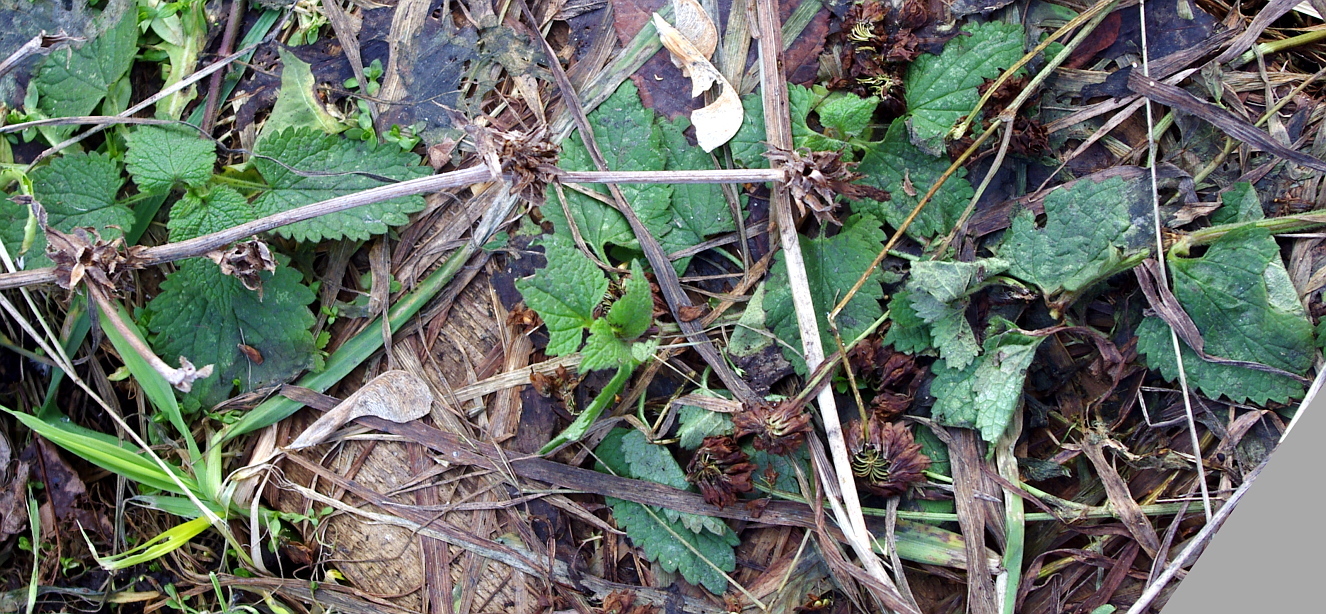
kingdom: Plantae
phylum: Tracheophyta
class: Magnoliopsida
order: Lamiales
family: Lamiaceae
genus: Lamium
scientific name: Lamium album
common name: White dead-nettle
